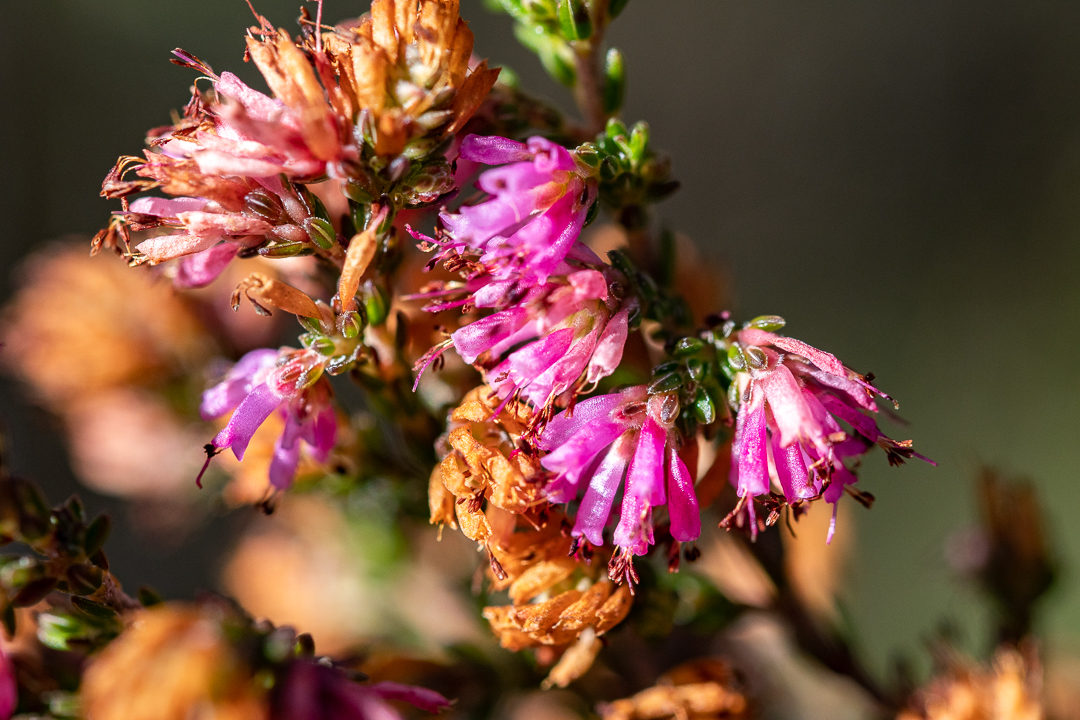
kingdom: Plantae
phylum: Tracheophyta
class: Magnoliopsida
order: Ericales
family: Ericaceae
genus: Erica
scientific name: Erica labialis
